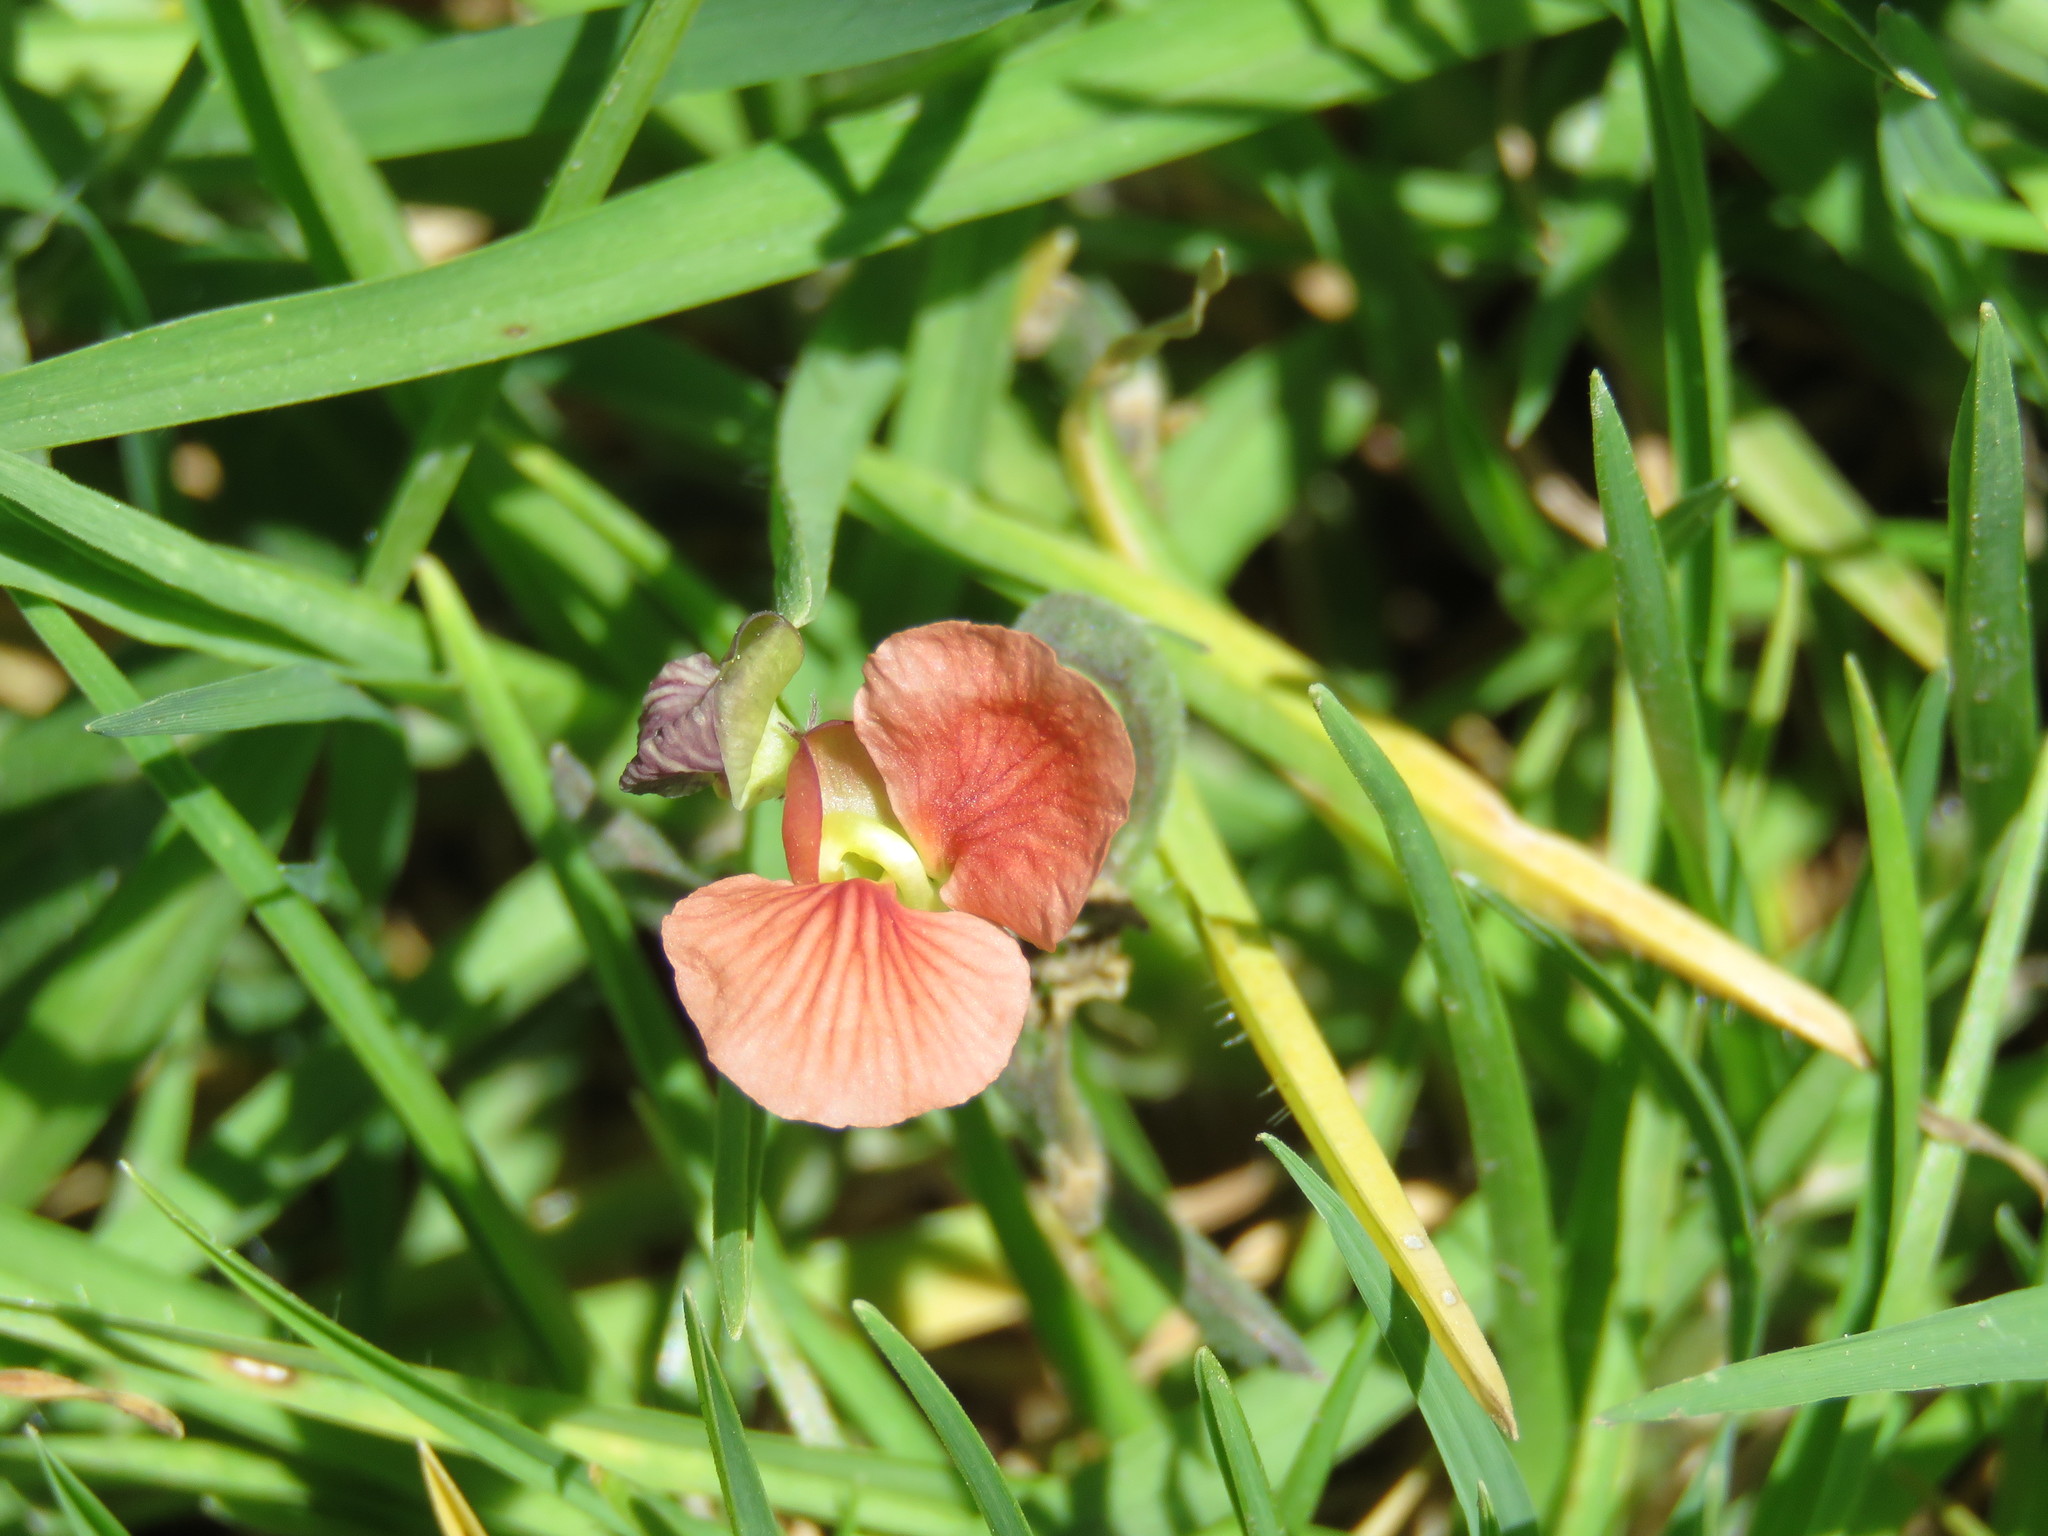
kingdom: Plantae
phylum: Tracheophyta
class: Magnoliopsida
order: Fabales
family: Fabaceae
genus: Macroptilium
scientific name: Macroptilium gibbosifolium
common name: Variableleaf bushbean
